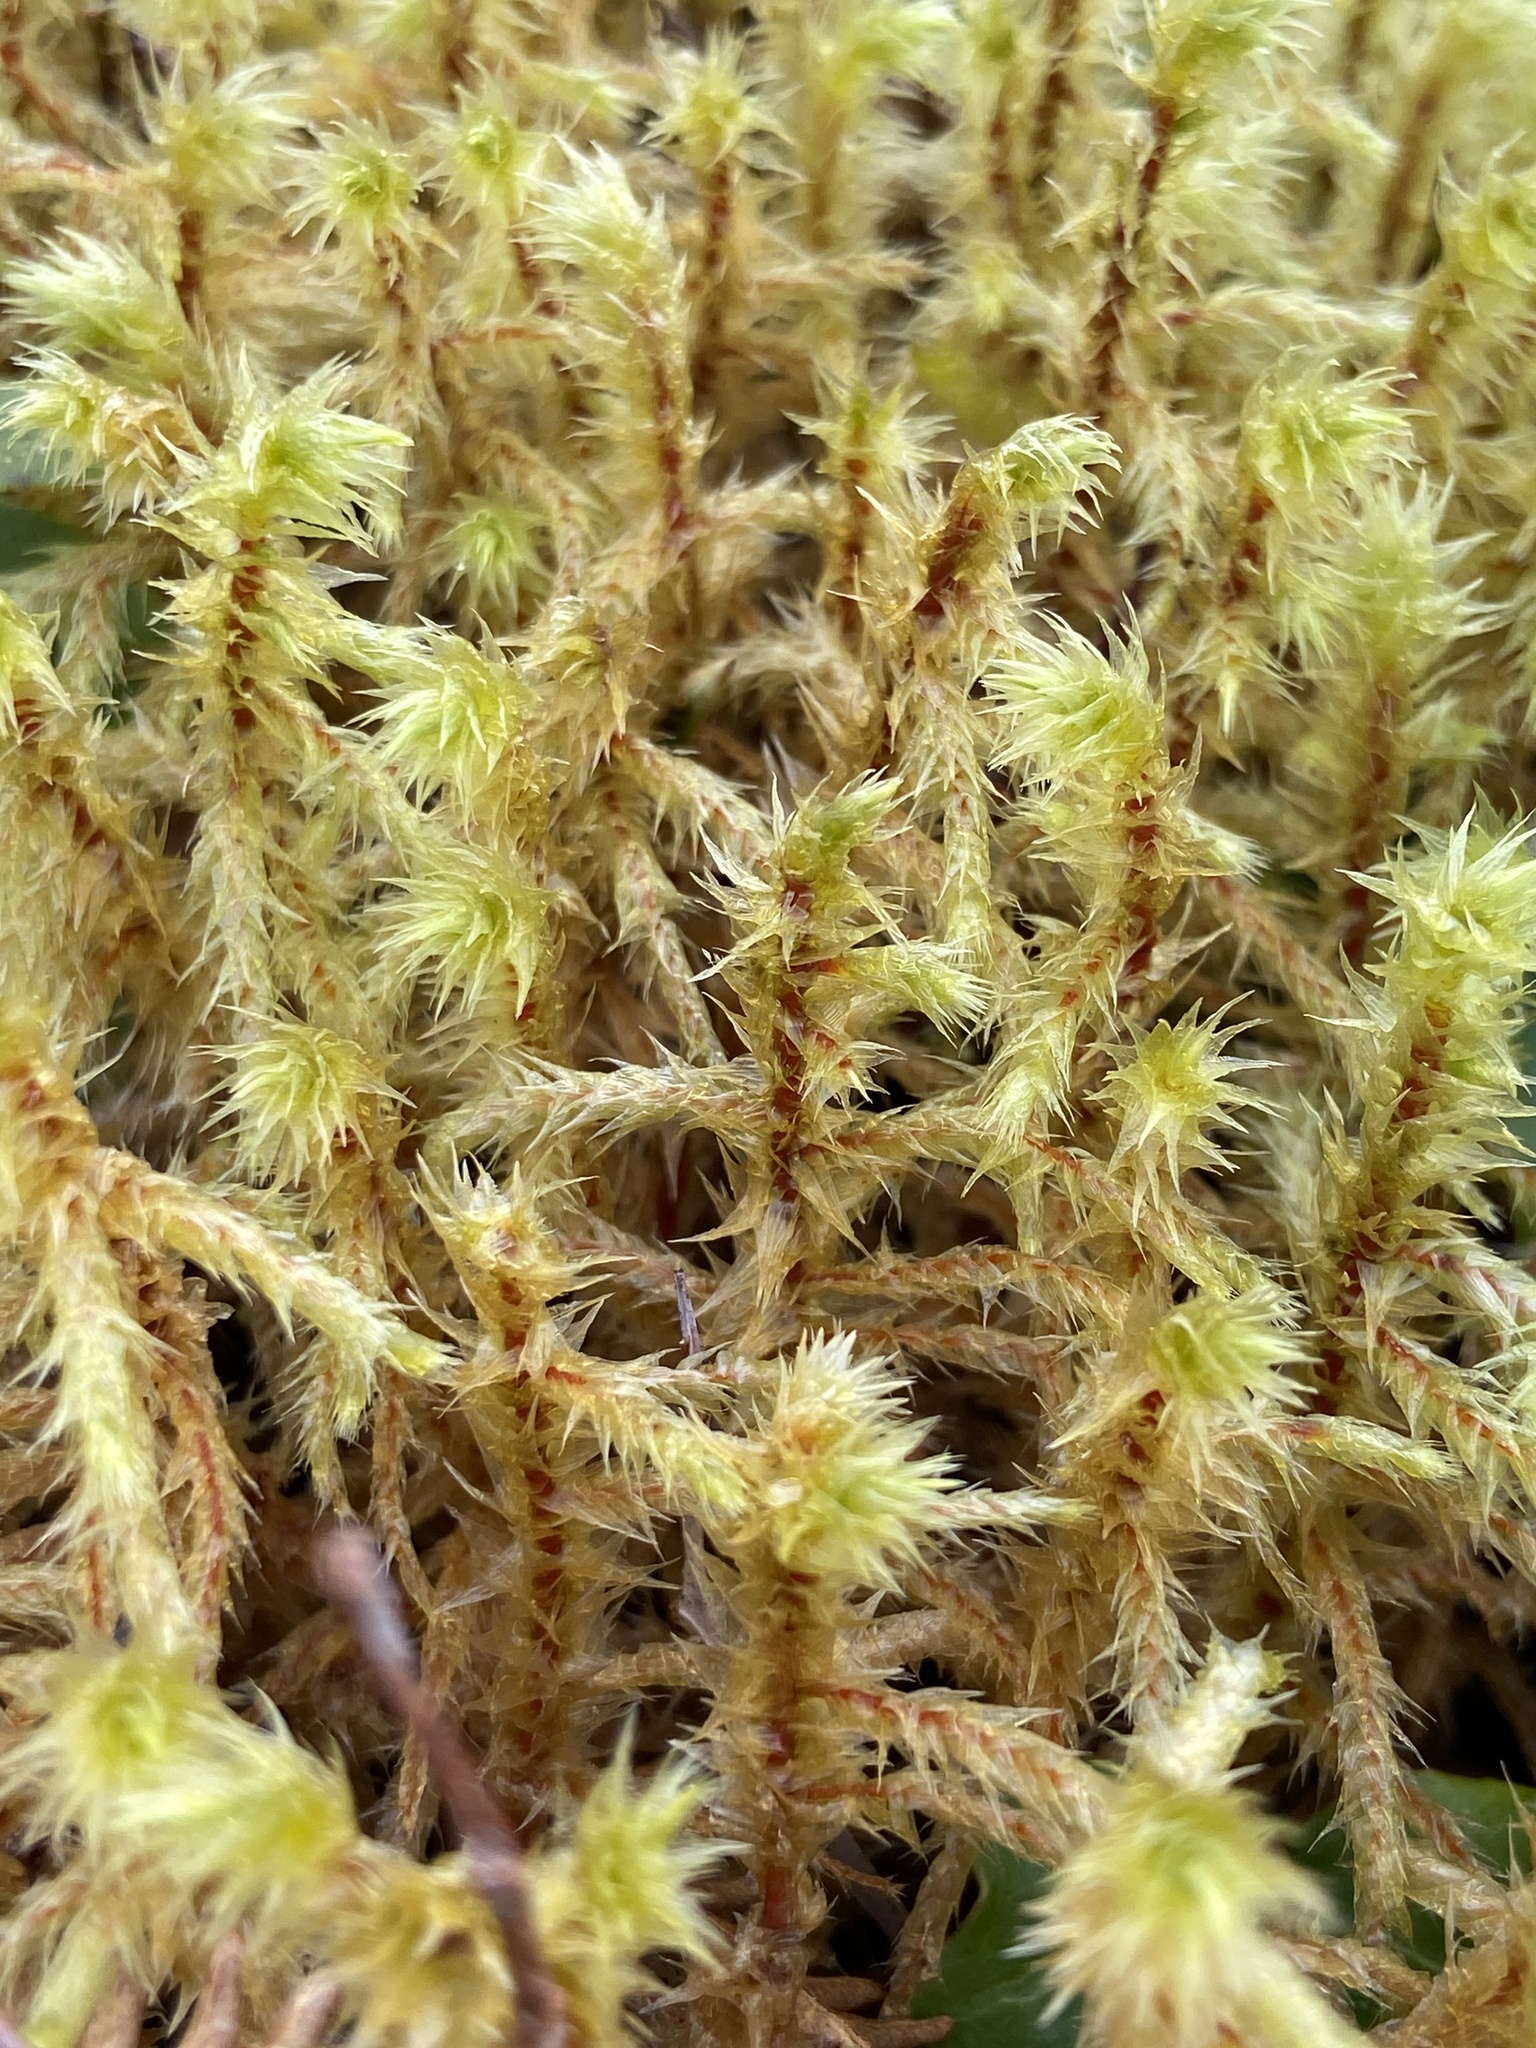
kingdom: Plantae
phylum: Bryophyta
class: Bryopsida
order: Hypnales
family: Hylocomiaceae
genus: Hylocomiadelphus
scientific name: Hylocomiadelphus triquetrus
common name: Rough goose neck moss
